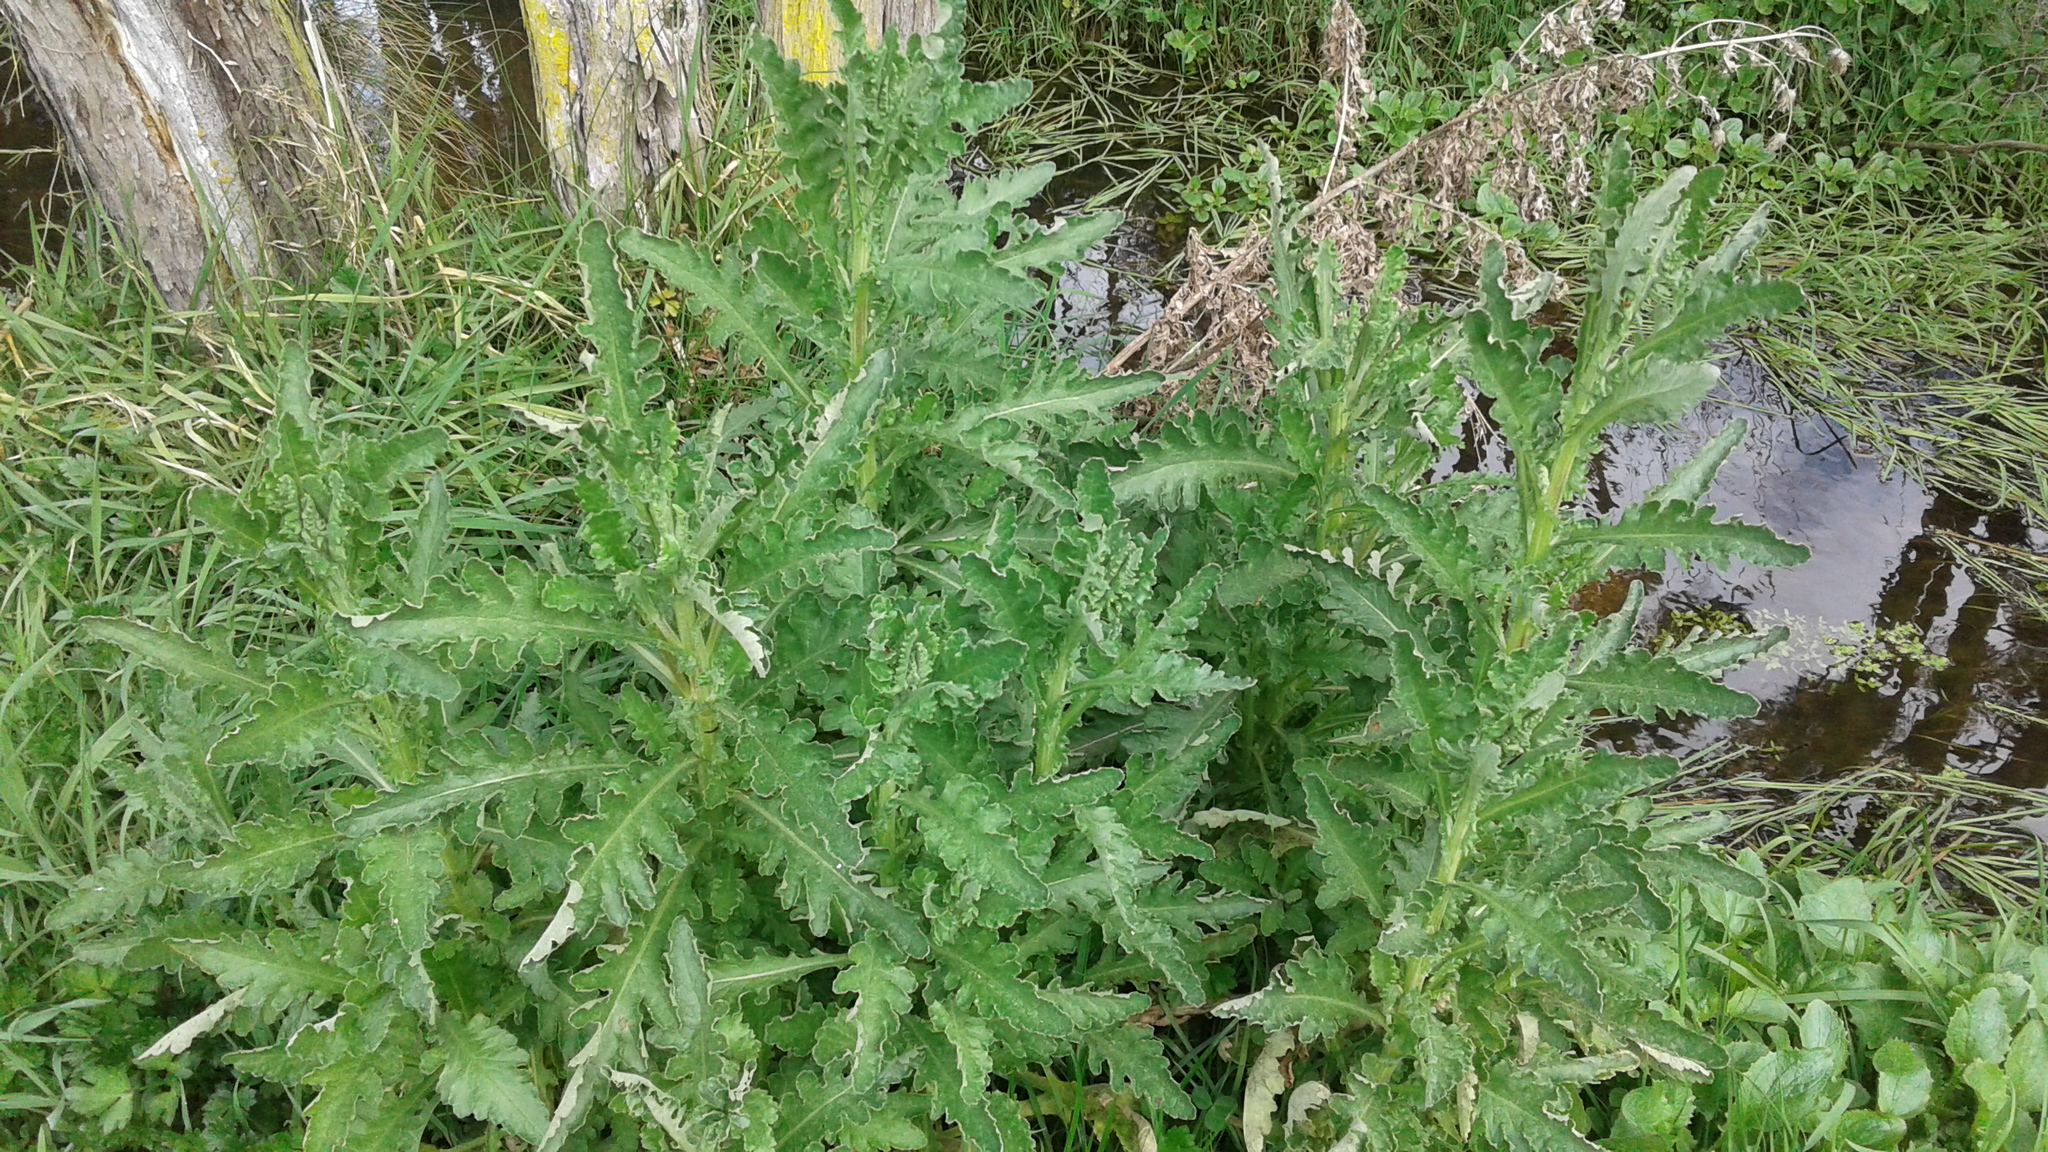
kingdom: Plantae
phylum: Tracheophyta
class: Magnoliopsida
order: Asterales
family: Asteraceae
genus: Senecio
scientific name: Senecio glomeratus
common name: Cutleaf burnweed
